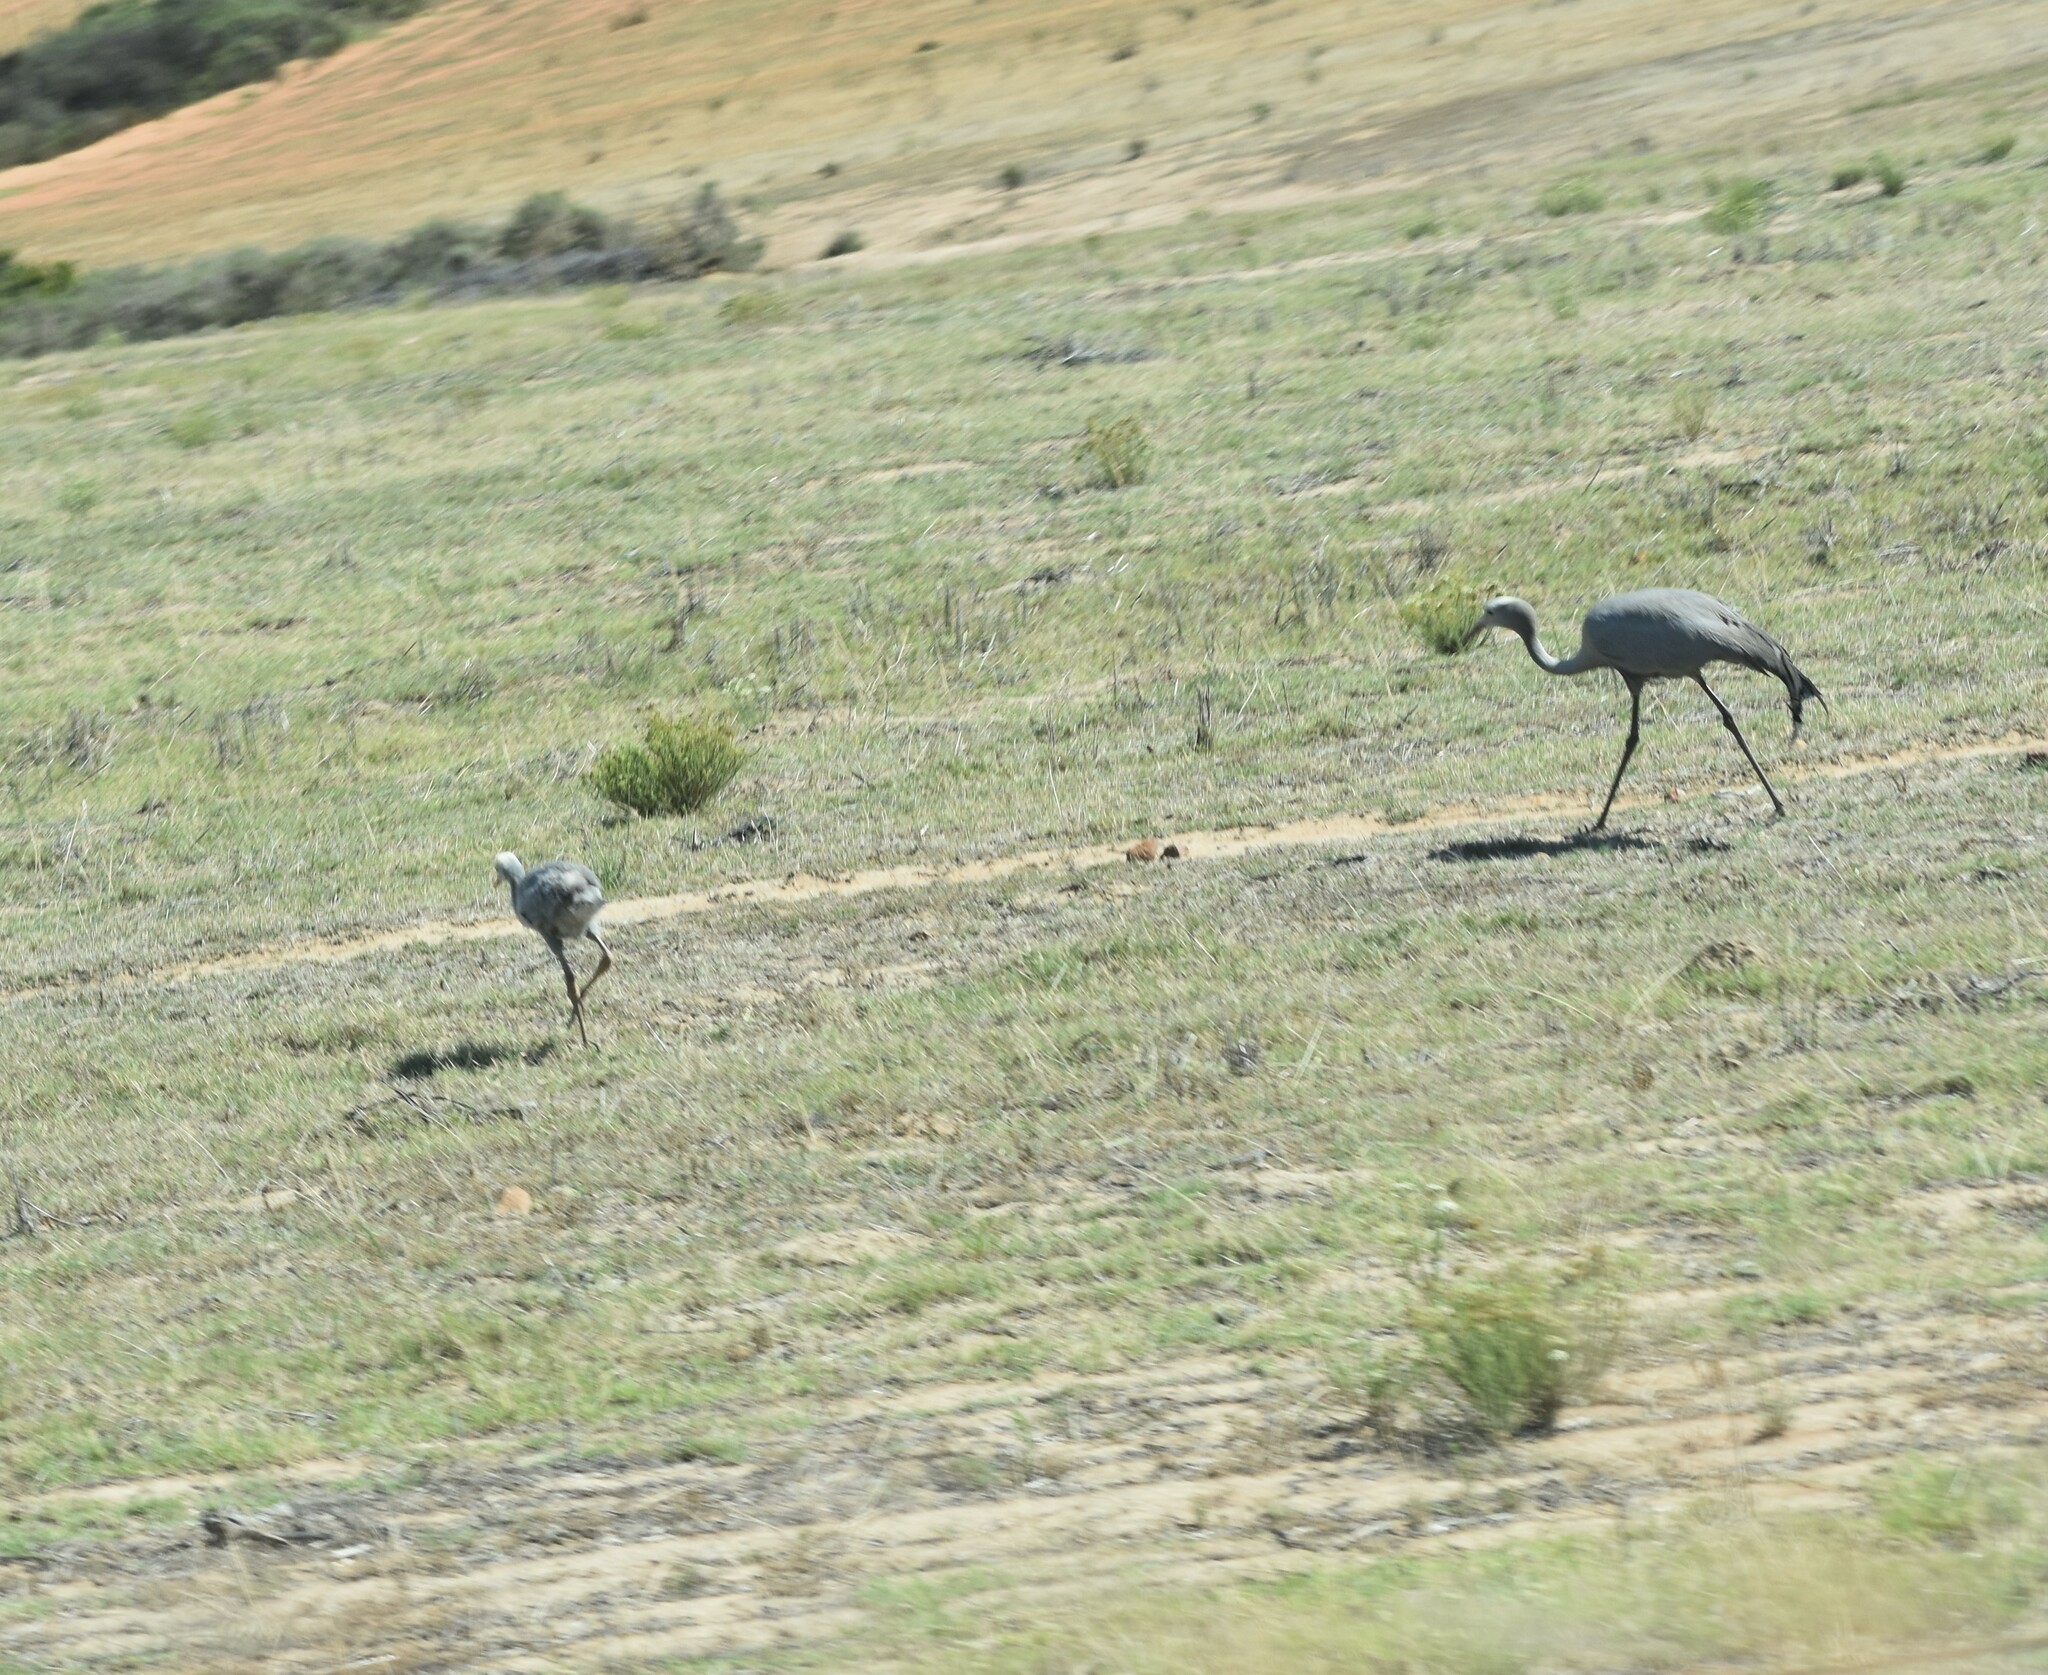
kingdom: Animalia
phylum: Chordata
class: Aves
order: Gruiformes
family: Gruidae
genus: Anthropoides
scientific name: Anthropoides paradiseus
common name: Blue crane
